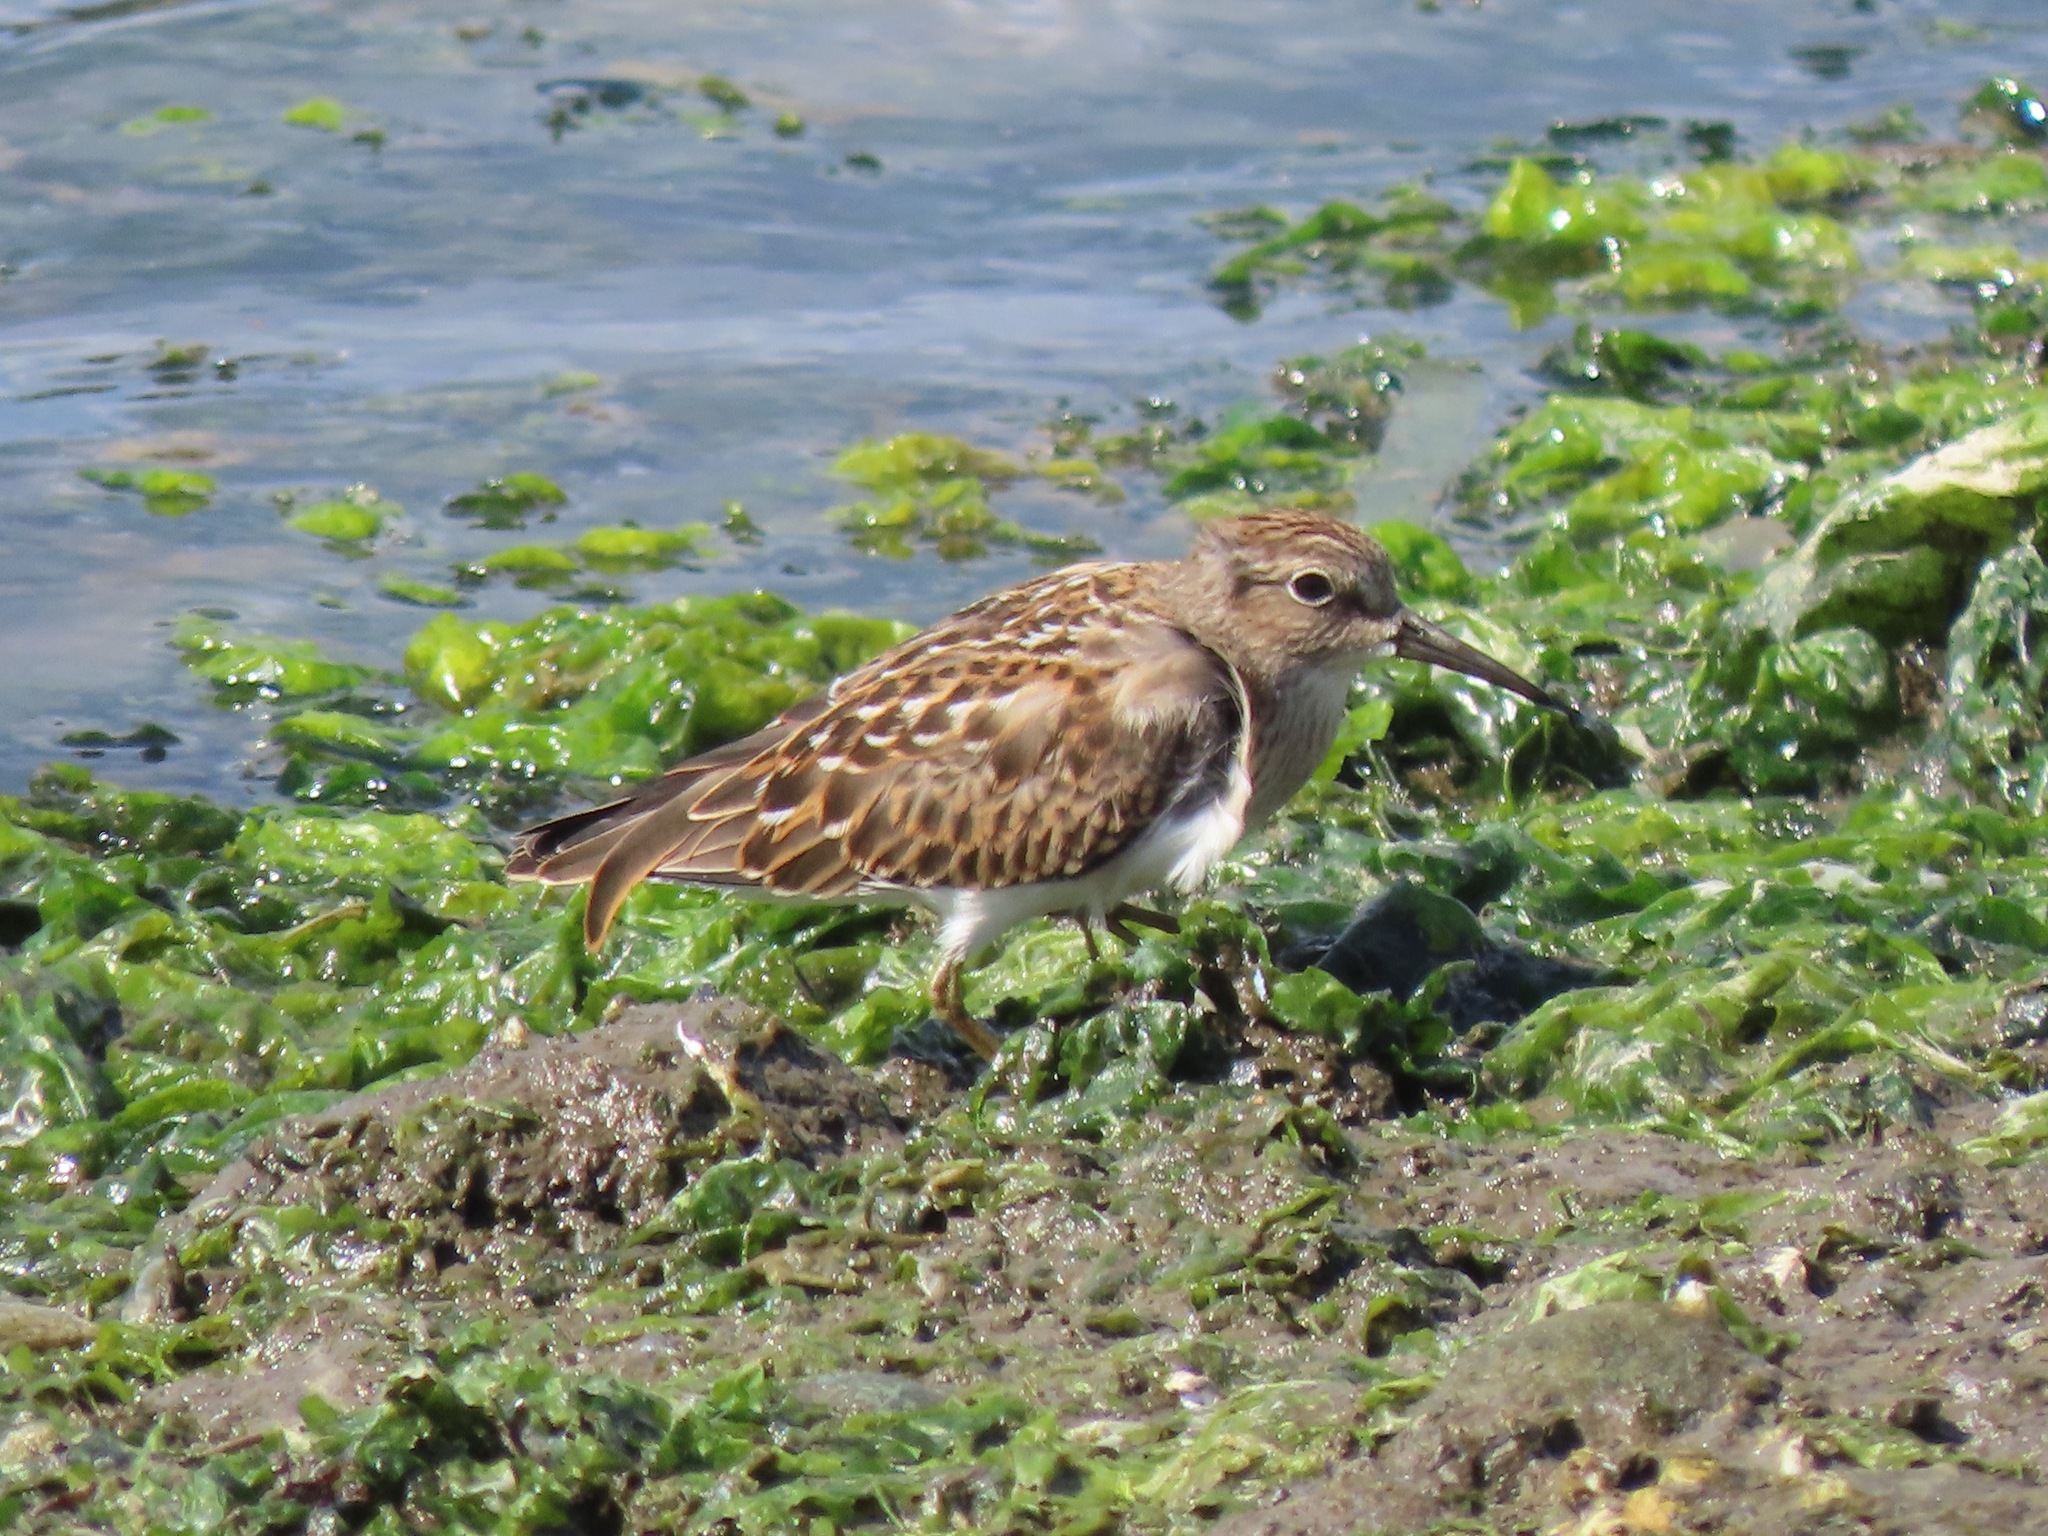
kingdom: Animalia
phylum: Chordata
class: Aves
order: Charadriiformes
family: Scolopacidae
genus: Calidris
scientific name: Calidris minutilla
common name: Least sandpiper
